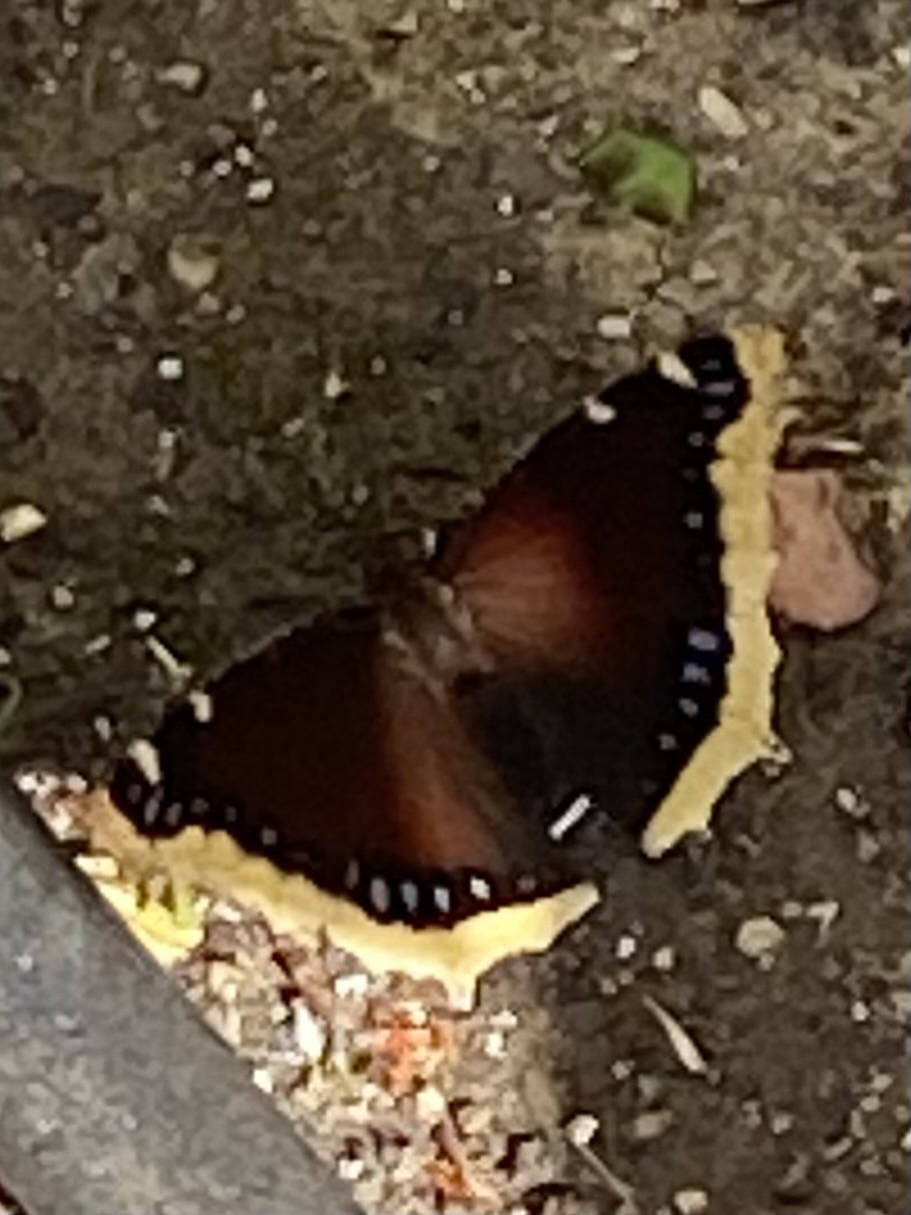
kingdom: Animalia
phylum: Arthropoda
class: Insecta
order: Lepidoptera
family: Nymphalidae
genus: Nymphalis
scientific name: Nymphalis antiopa
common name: Camberwell beauty
